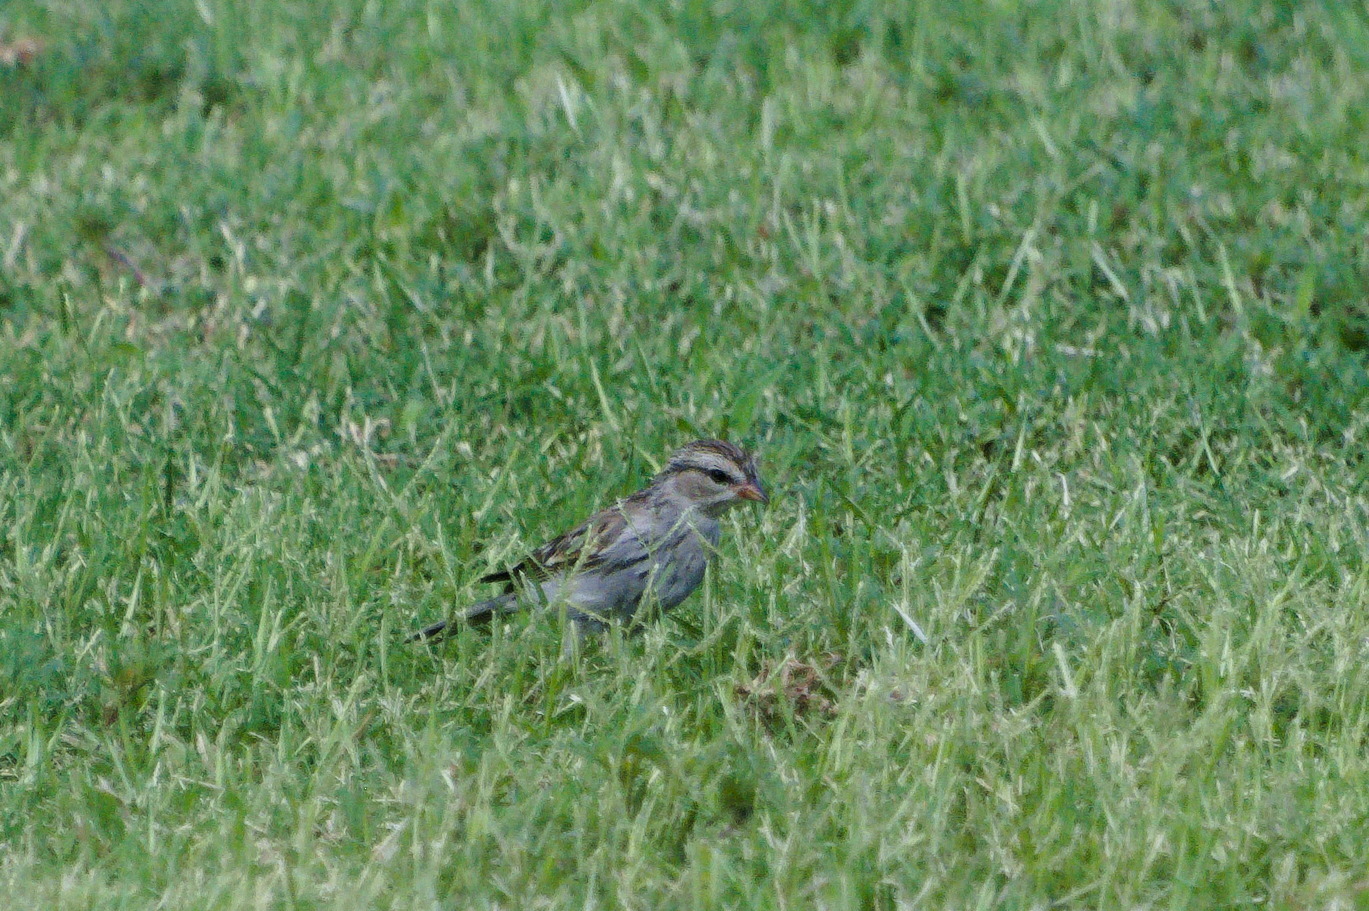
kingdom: Animalia
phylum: Chordata
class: Aves
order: Passeriformes
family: Passerellidae
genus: Spizella
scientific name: Spizella passerina
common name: Chipping sparrow
